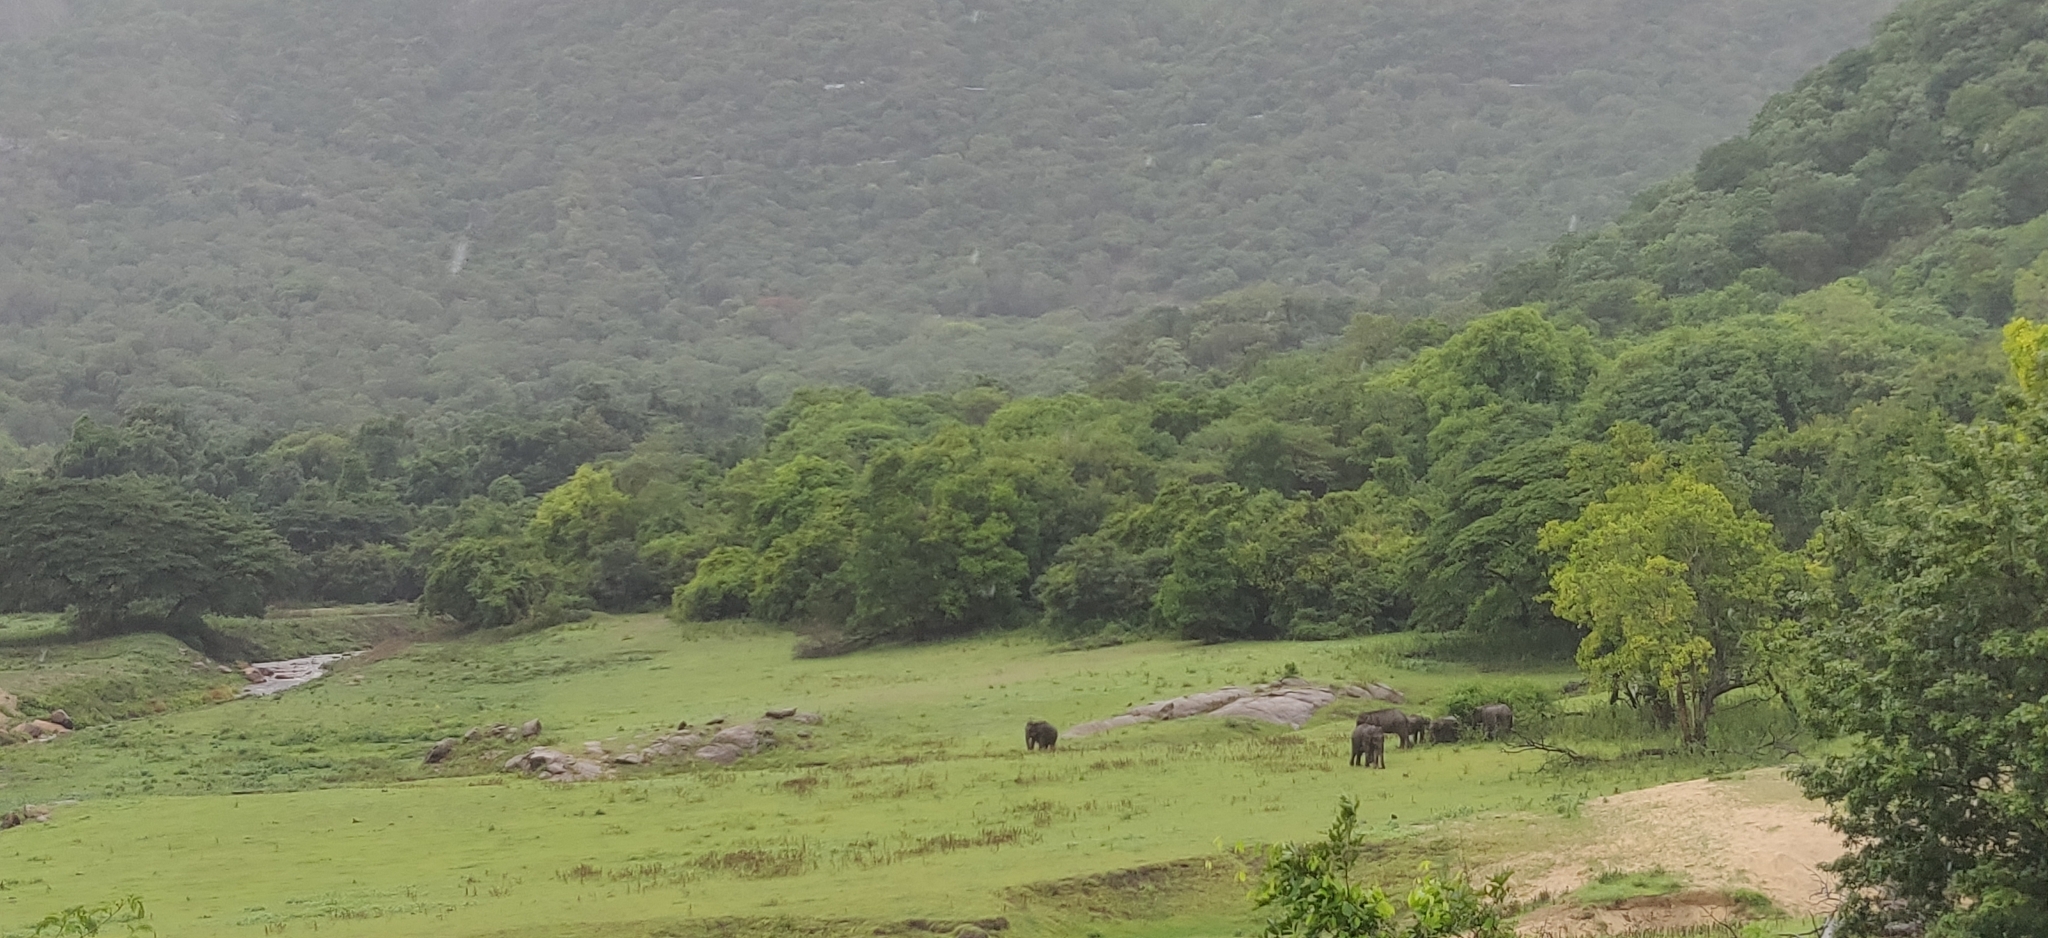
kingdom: Animalia
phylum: Chordata
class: Mammalia
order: Proboscidea
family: Elephantidae
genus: Elephas
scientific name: Elephas maximus
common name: Asian elephant
